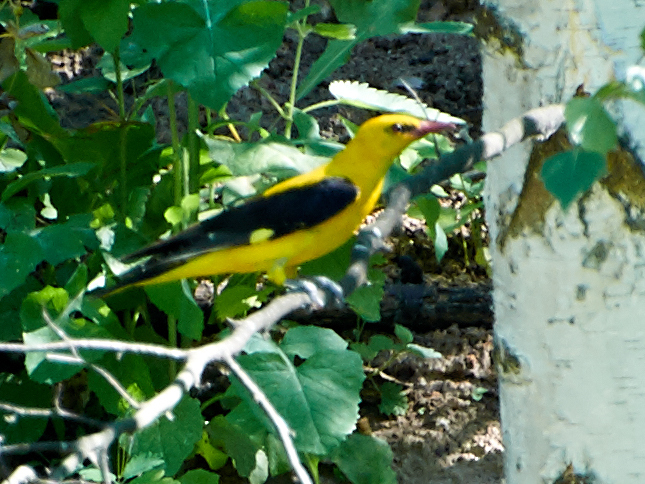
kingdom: Animalia
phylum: Chordata
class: Aves
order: Passeriformes
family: Oriolidae
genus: Oriolus
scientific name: Oriolus oriolus
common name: Eurasian golden oriole
